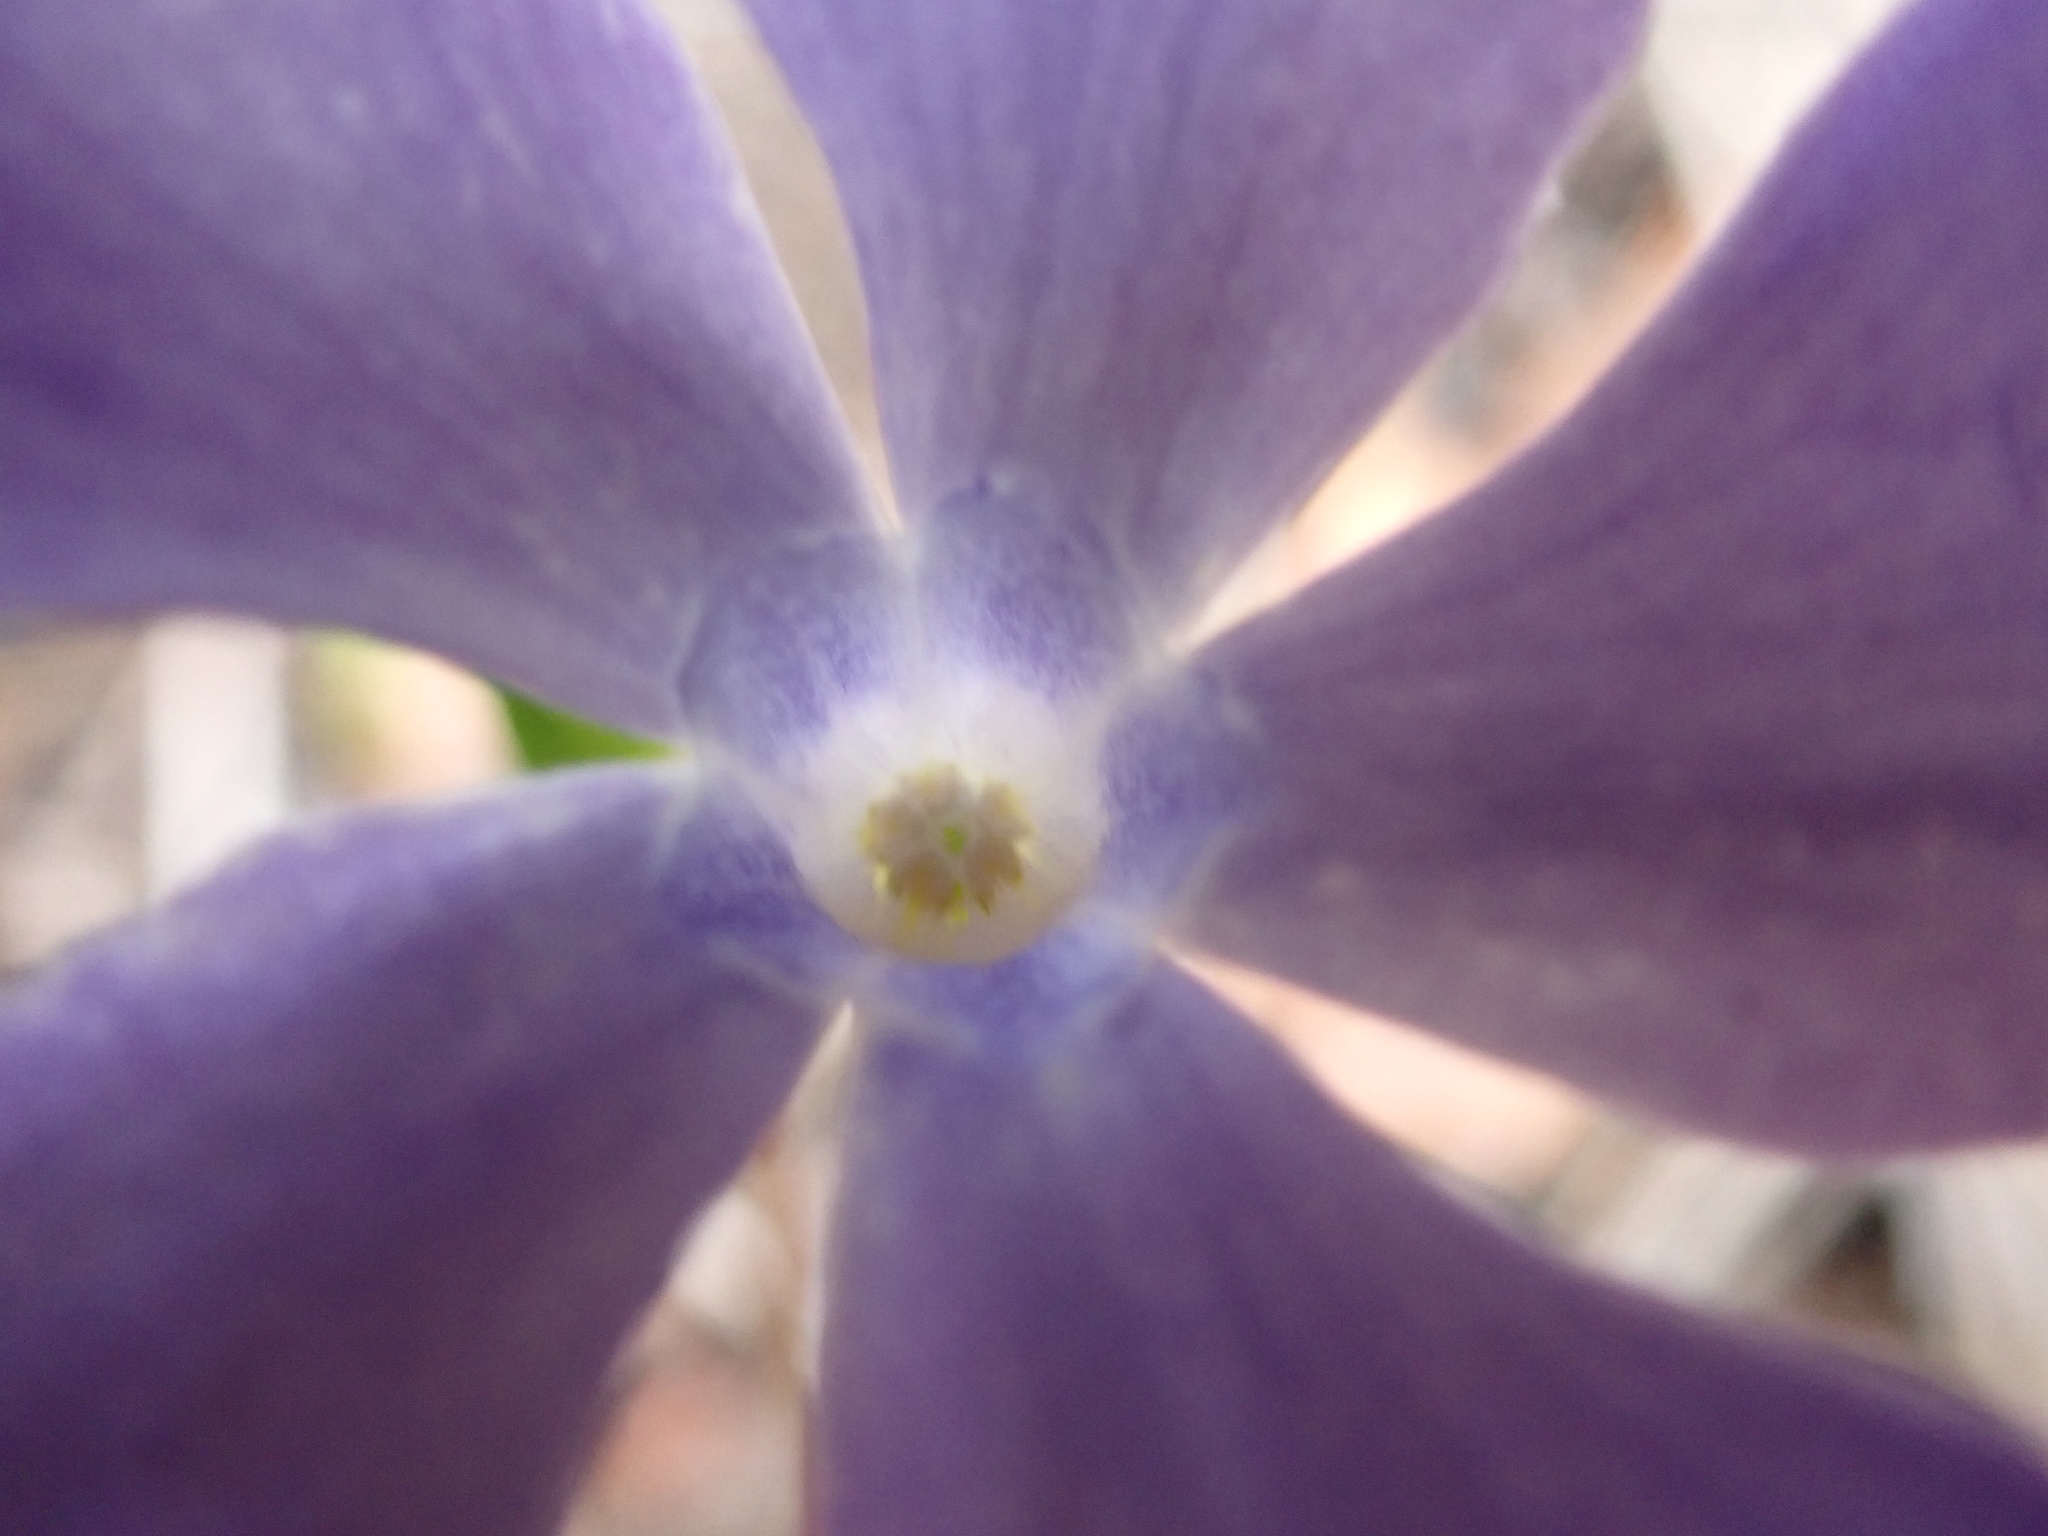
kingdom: Plantae
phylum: Tracheophyta
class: Magnoliopsida
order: Gentianales
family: Apocynaceae
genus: Vinca
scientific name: Vinca minor
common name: Lesser periwinkle
